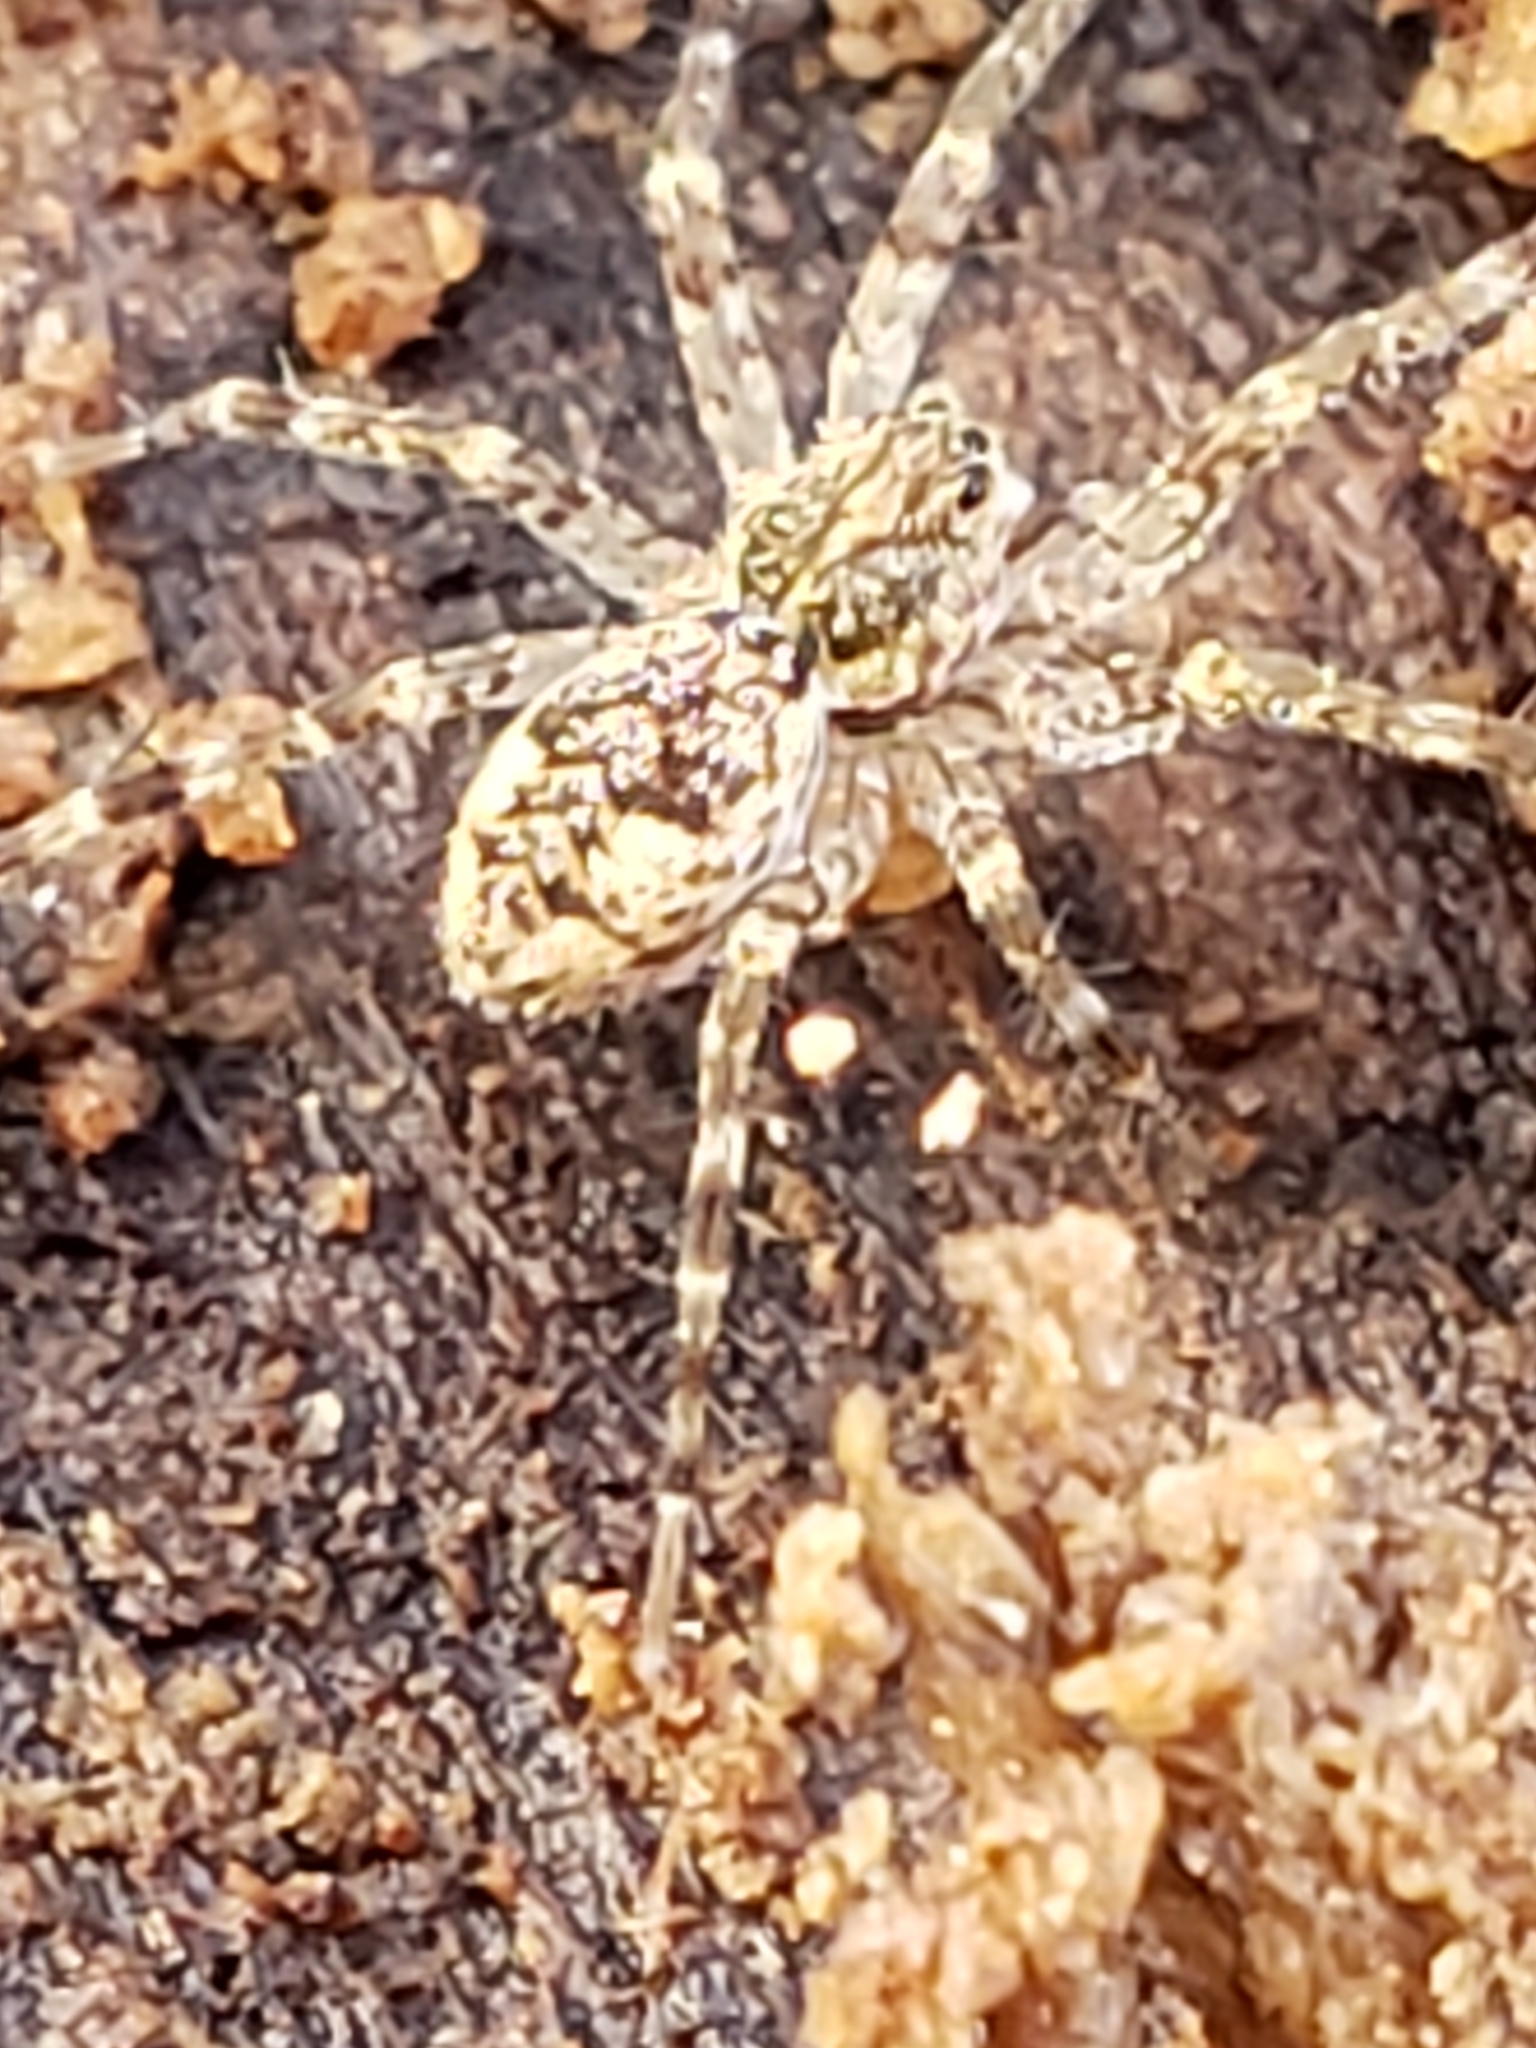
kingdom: Animalia
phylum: Arthropoda
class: Arachnida
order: Araneae
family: Pisauridae
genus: Dolomedes
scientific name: Dolomedes tenebrosus
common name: Dark fishing spider
